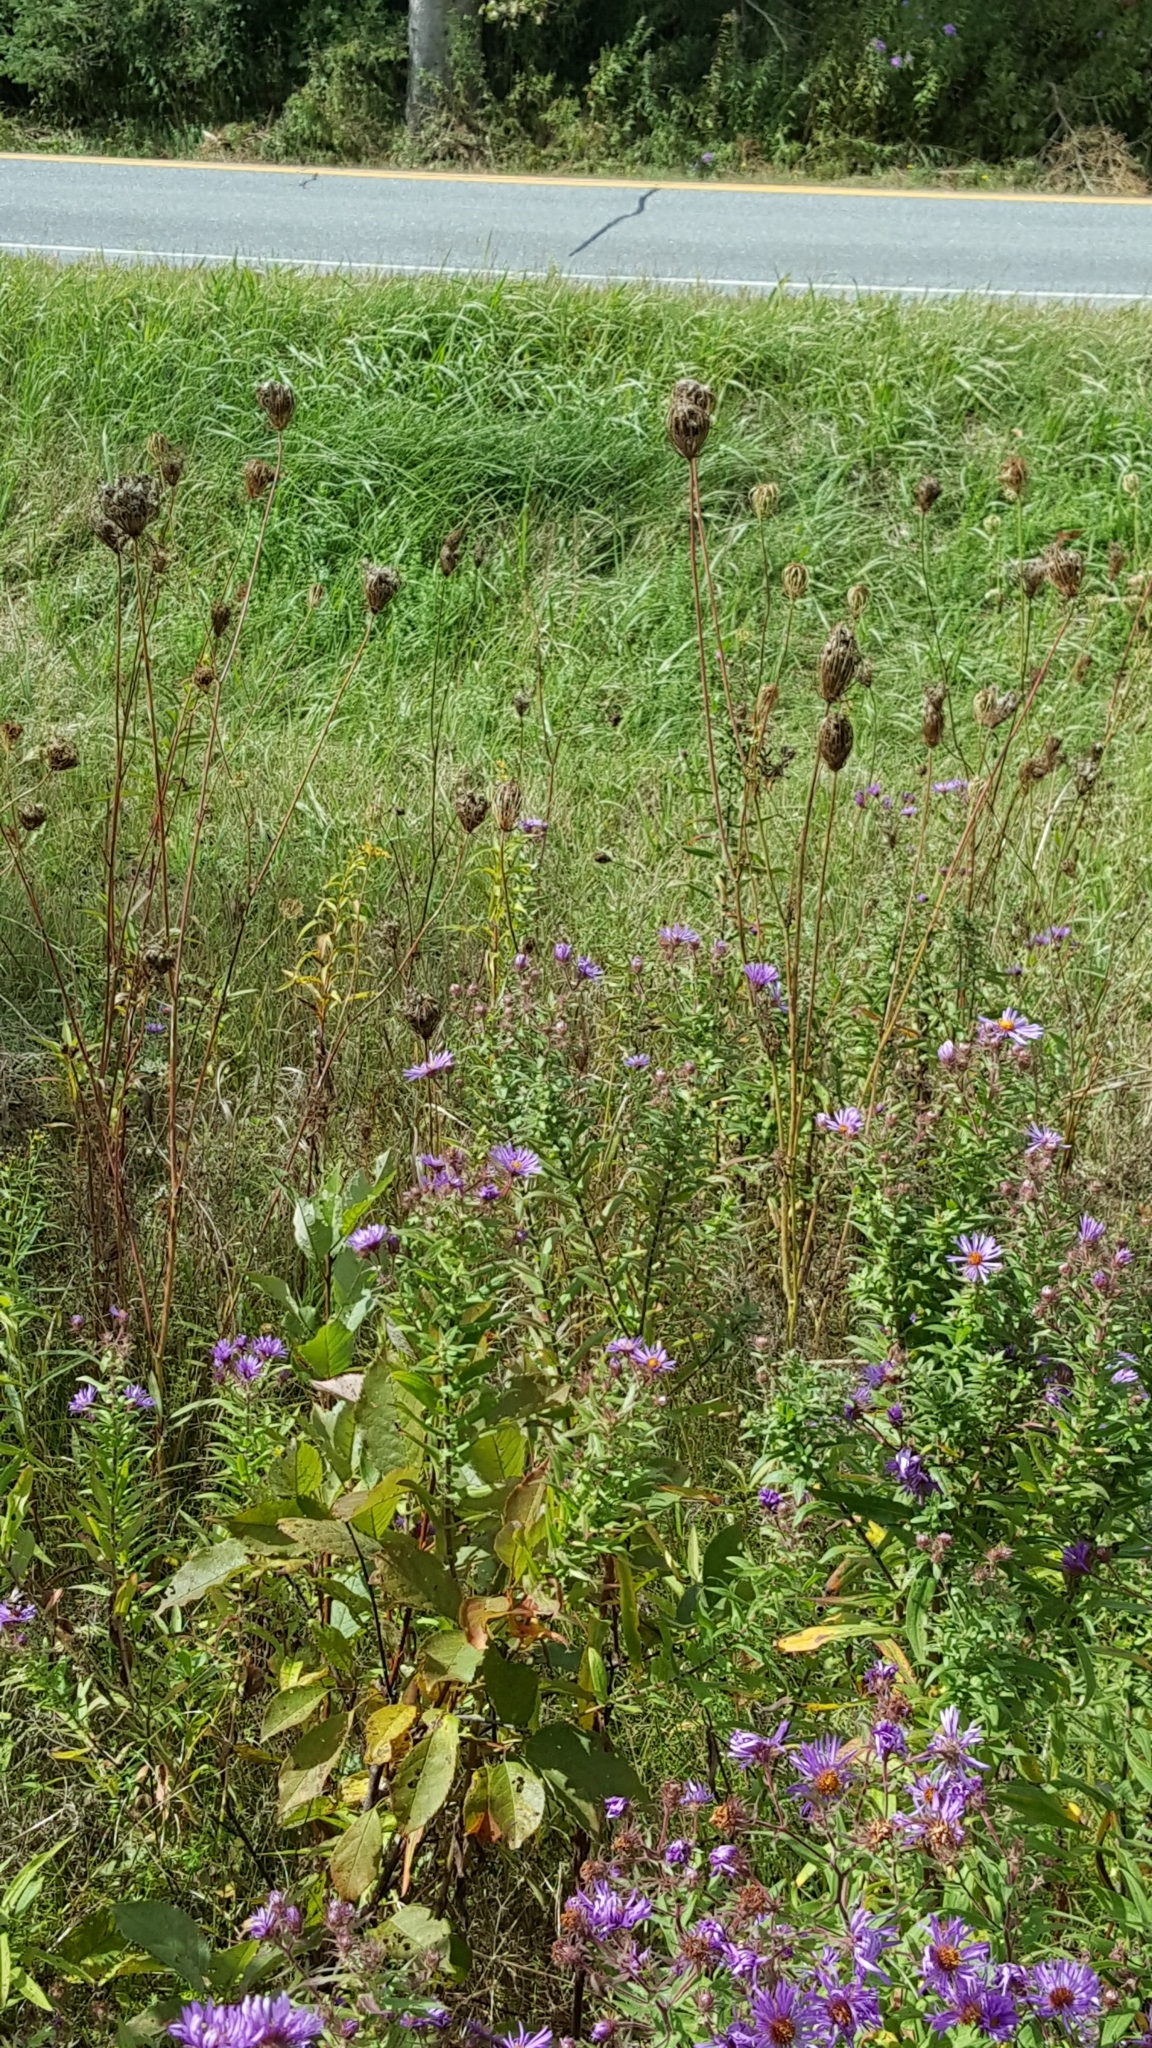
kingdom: Plantae
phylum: Tracheophyta
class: Magnoliopsida
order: Apiales
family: Apiaceae
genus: Daucus
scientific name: Daucus carota
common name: Wild carrot
